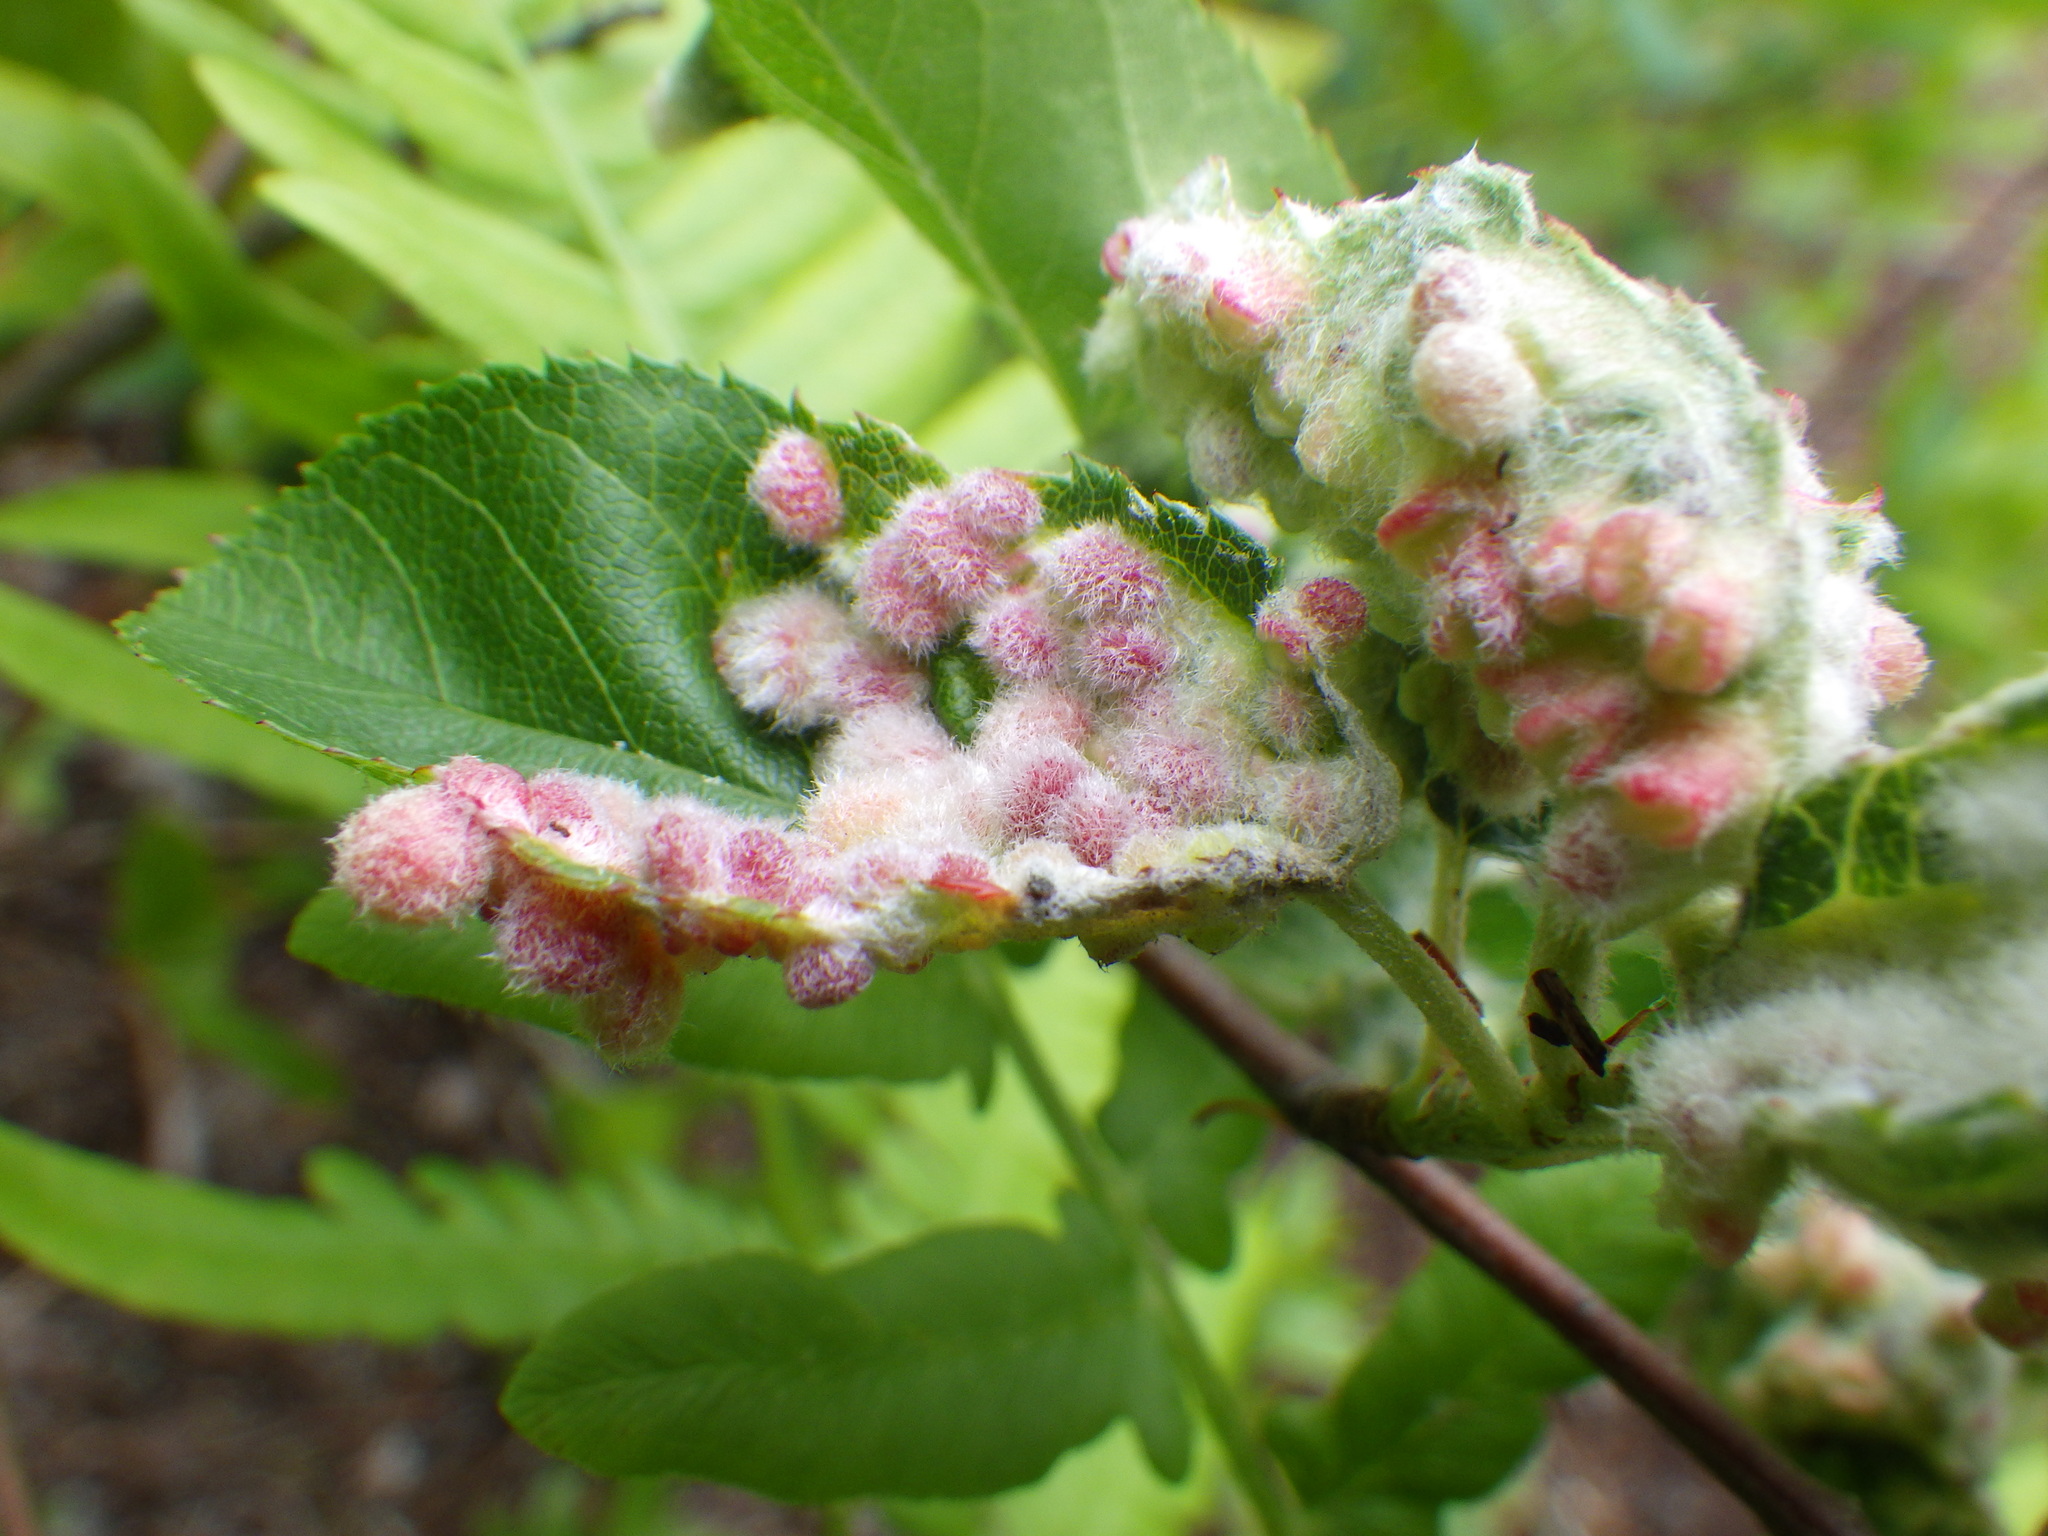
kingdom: Animalia
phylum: Arthropoda
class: Insecta
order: Diptera
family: Cecidomyiidae
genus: Blaesodiplosis
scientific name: Blaesodiplosis
